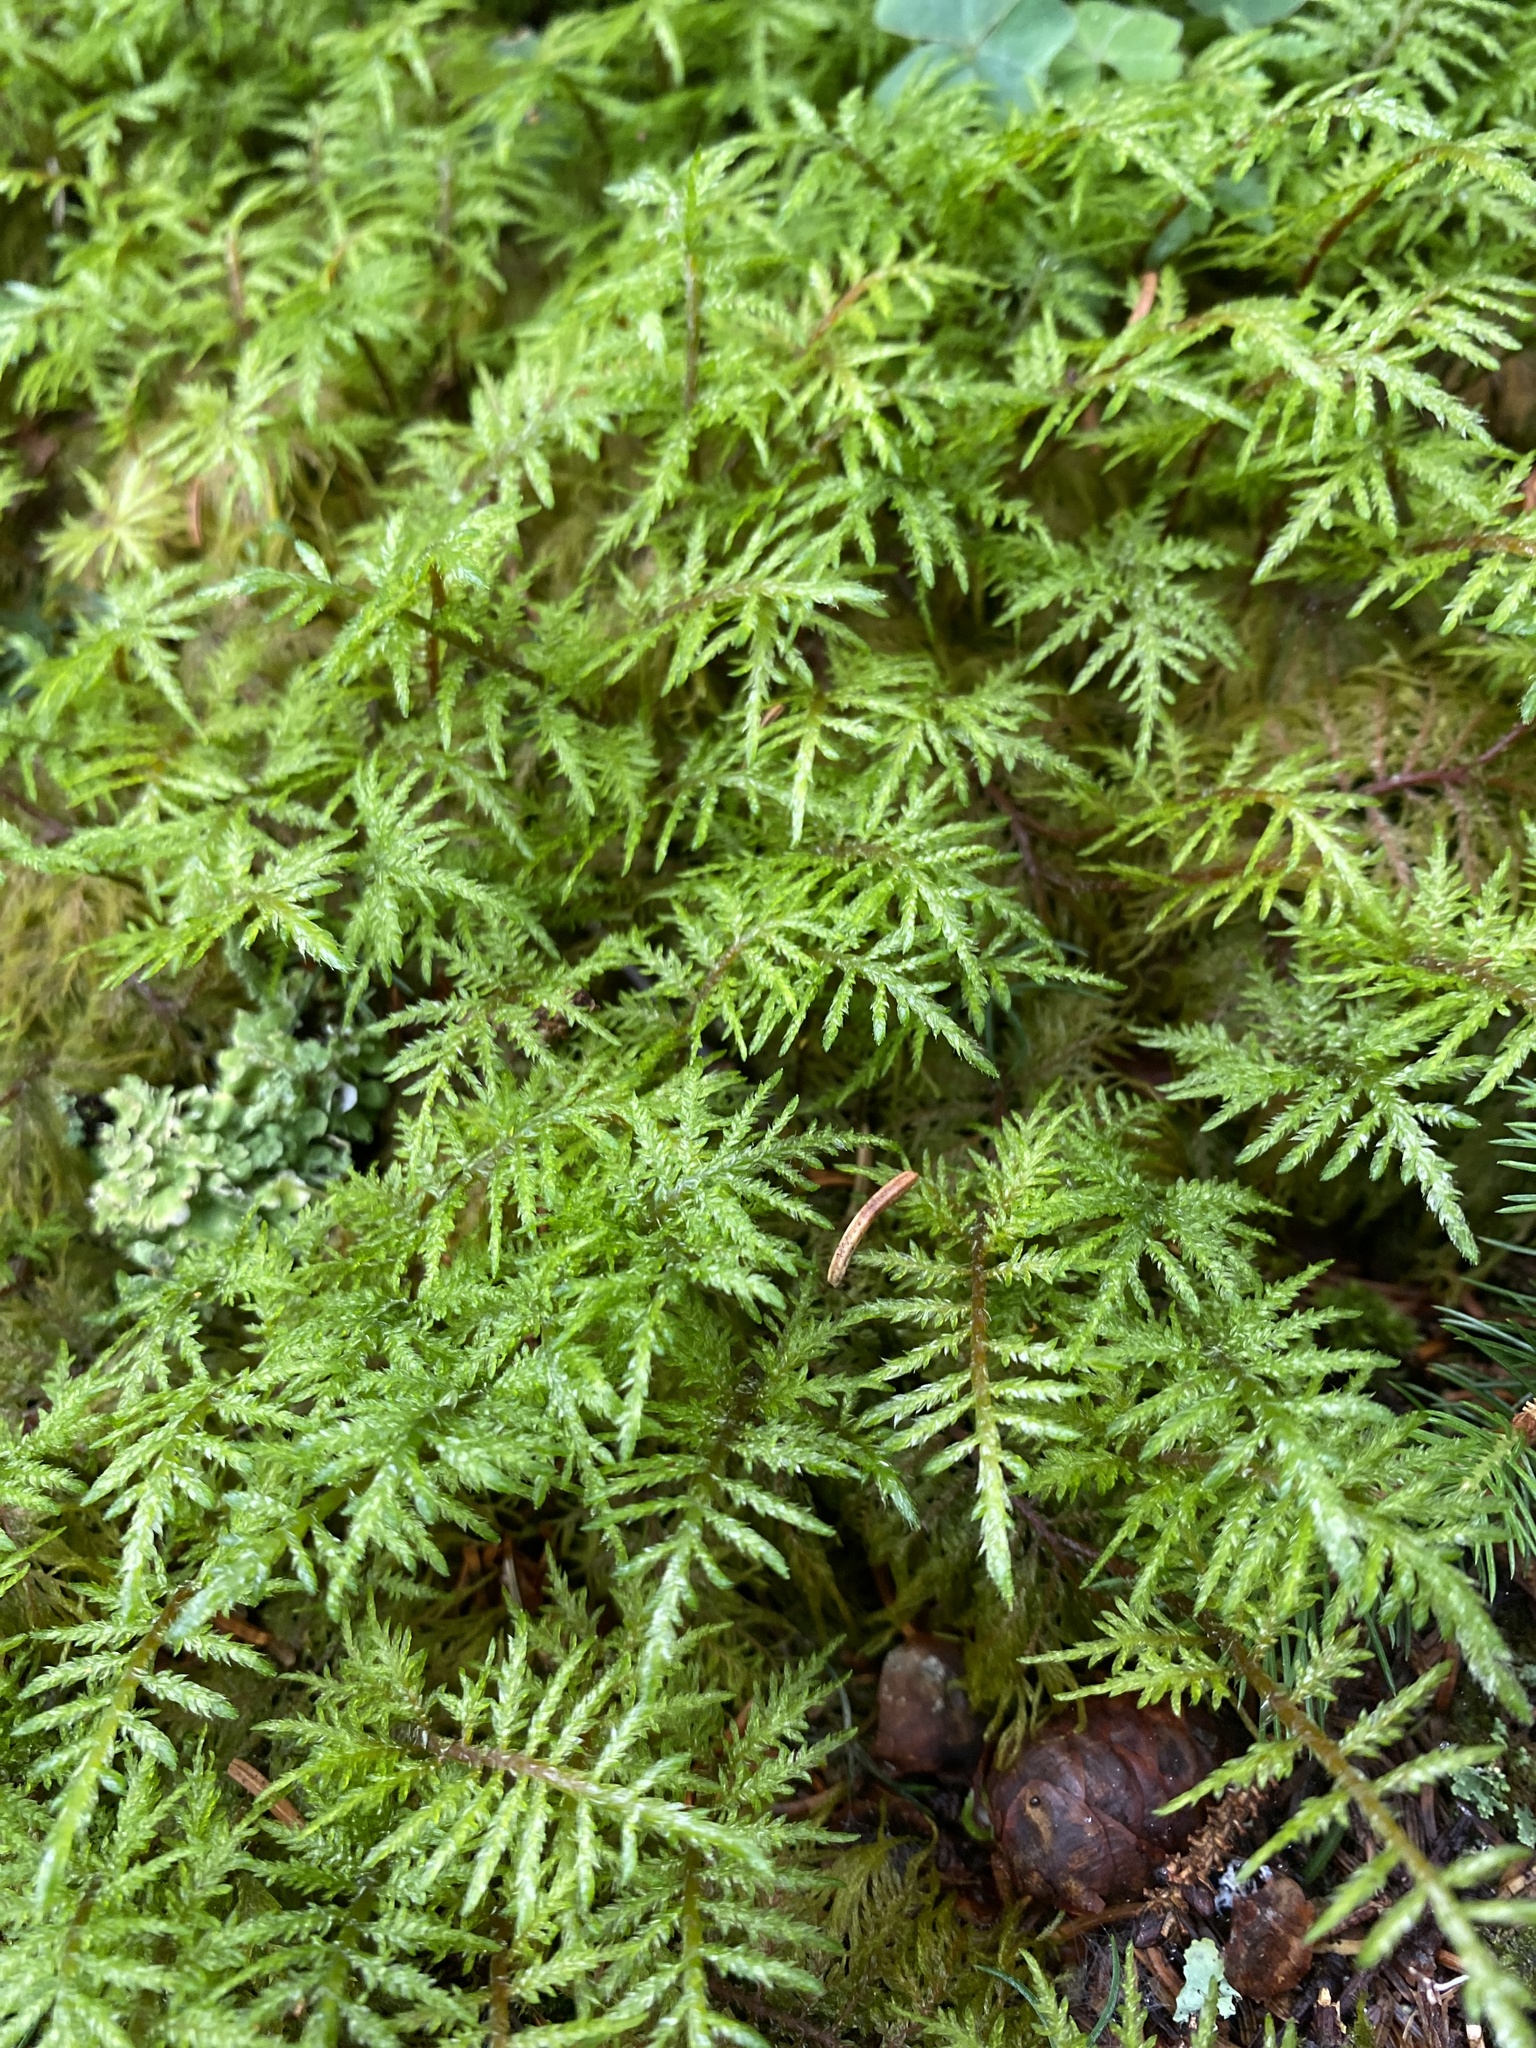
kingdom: Plantae
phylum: Bryophyta
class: Bryopsida
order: Hypnales
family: Hylocomiaceae
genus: Hylocomium
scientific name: Hylocomium splendens
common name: Stairstep moss
